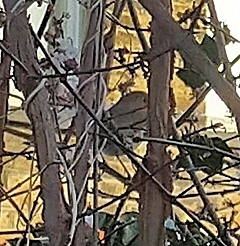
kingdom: Animalia
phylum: Chordata
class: Aves
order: Passeriformes
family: Muscicapidae
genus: Erithacus
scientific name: Erithacus rubecula
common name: European robin
